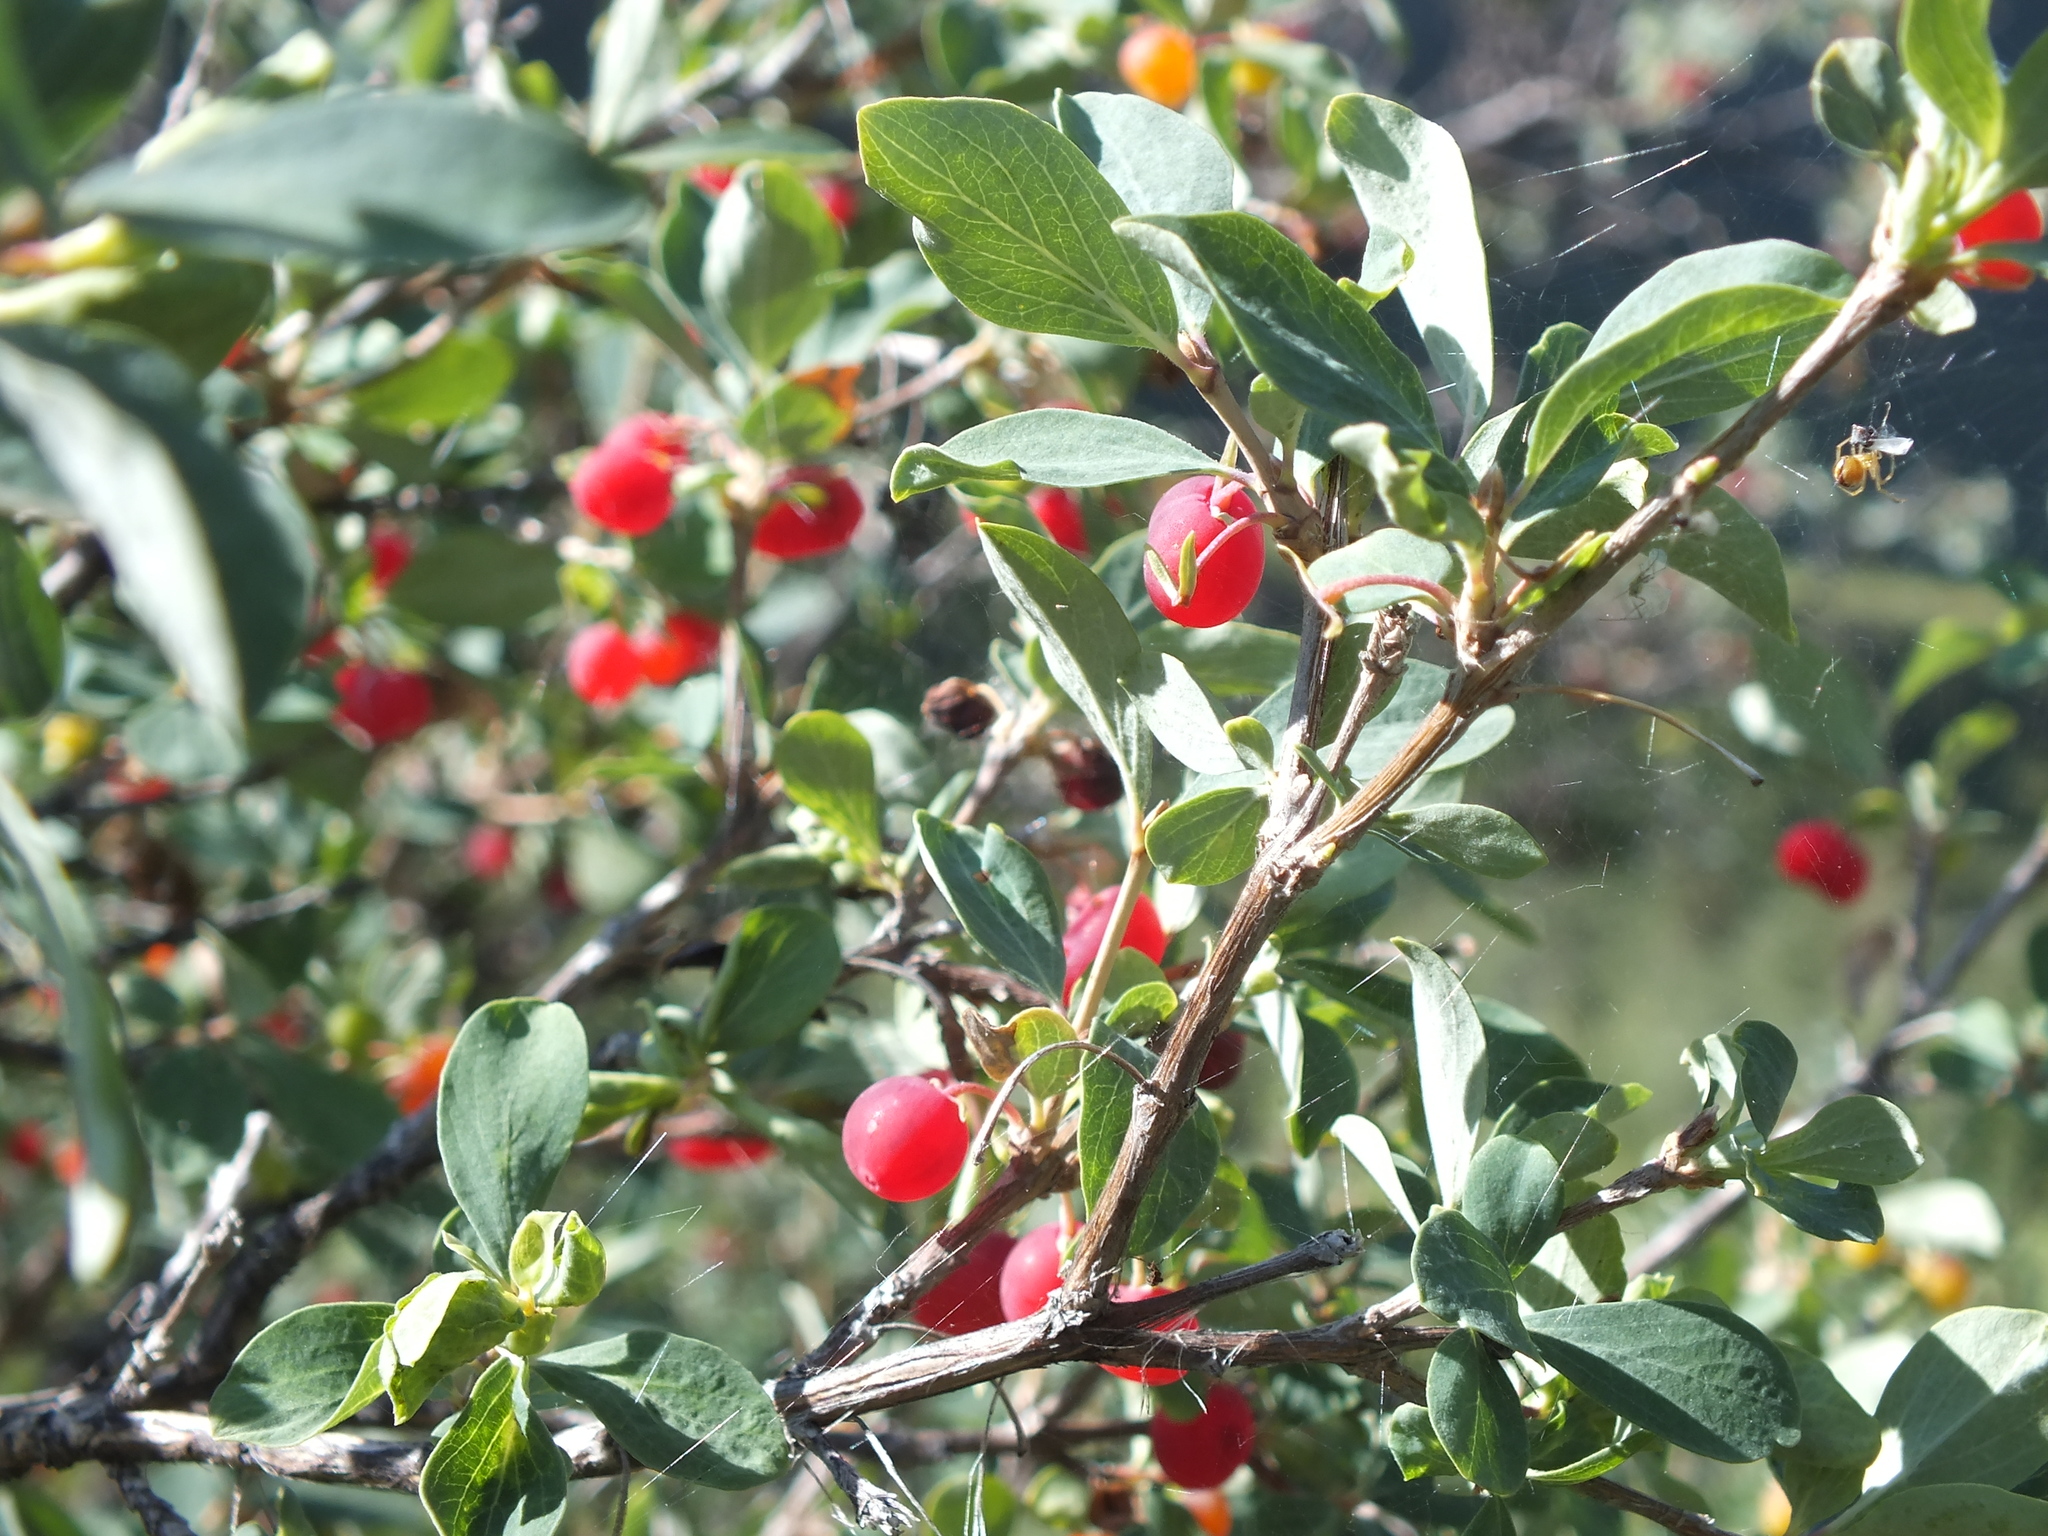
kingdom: Plantae
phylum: Tracheophyta
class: Magnoliopsida
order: Dipsacales
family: Caprifoliaceae
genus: Lonicera
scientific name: Lonicera microphylla
